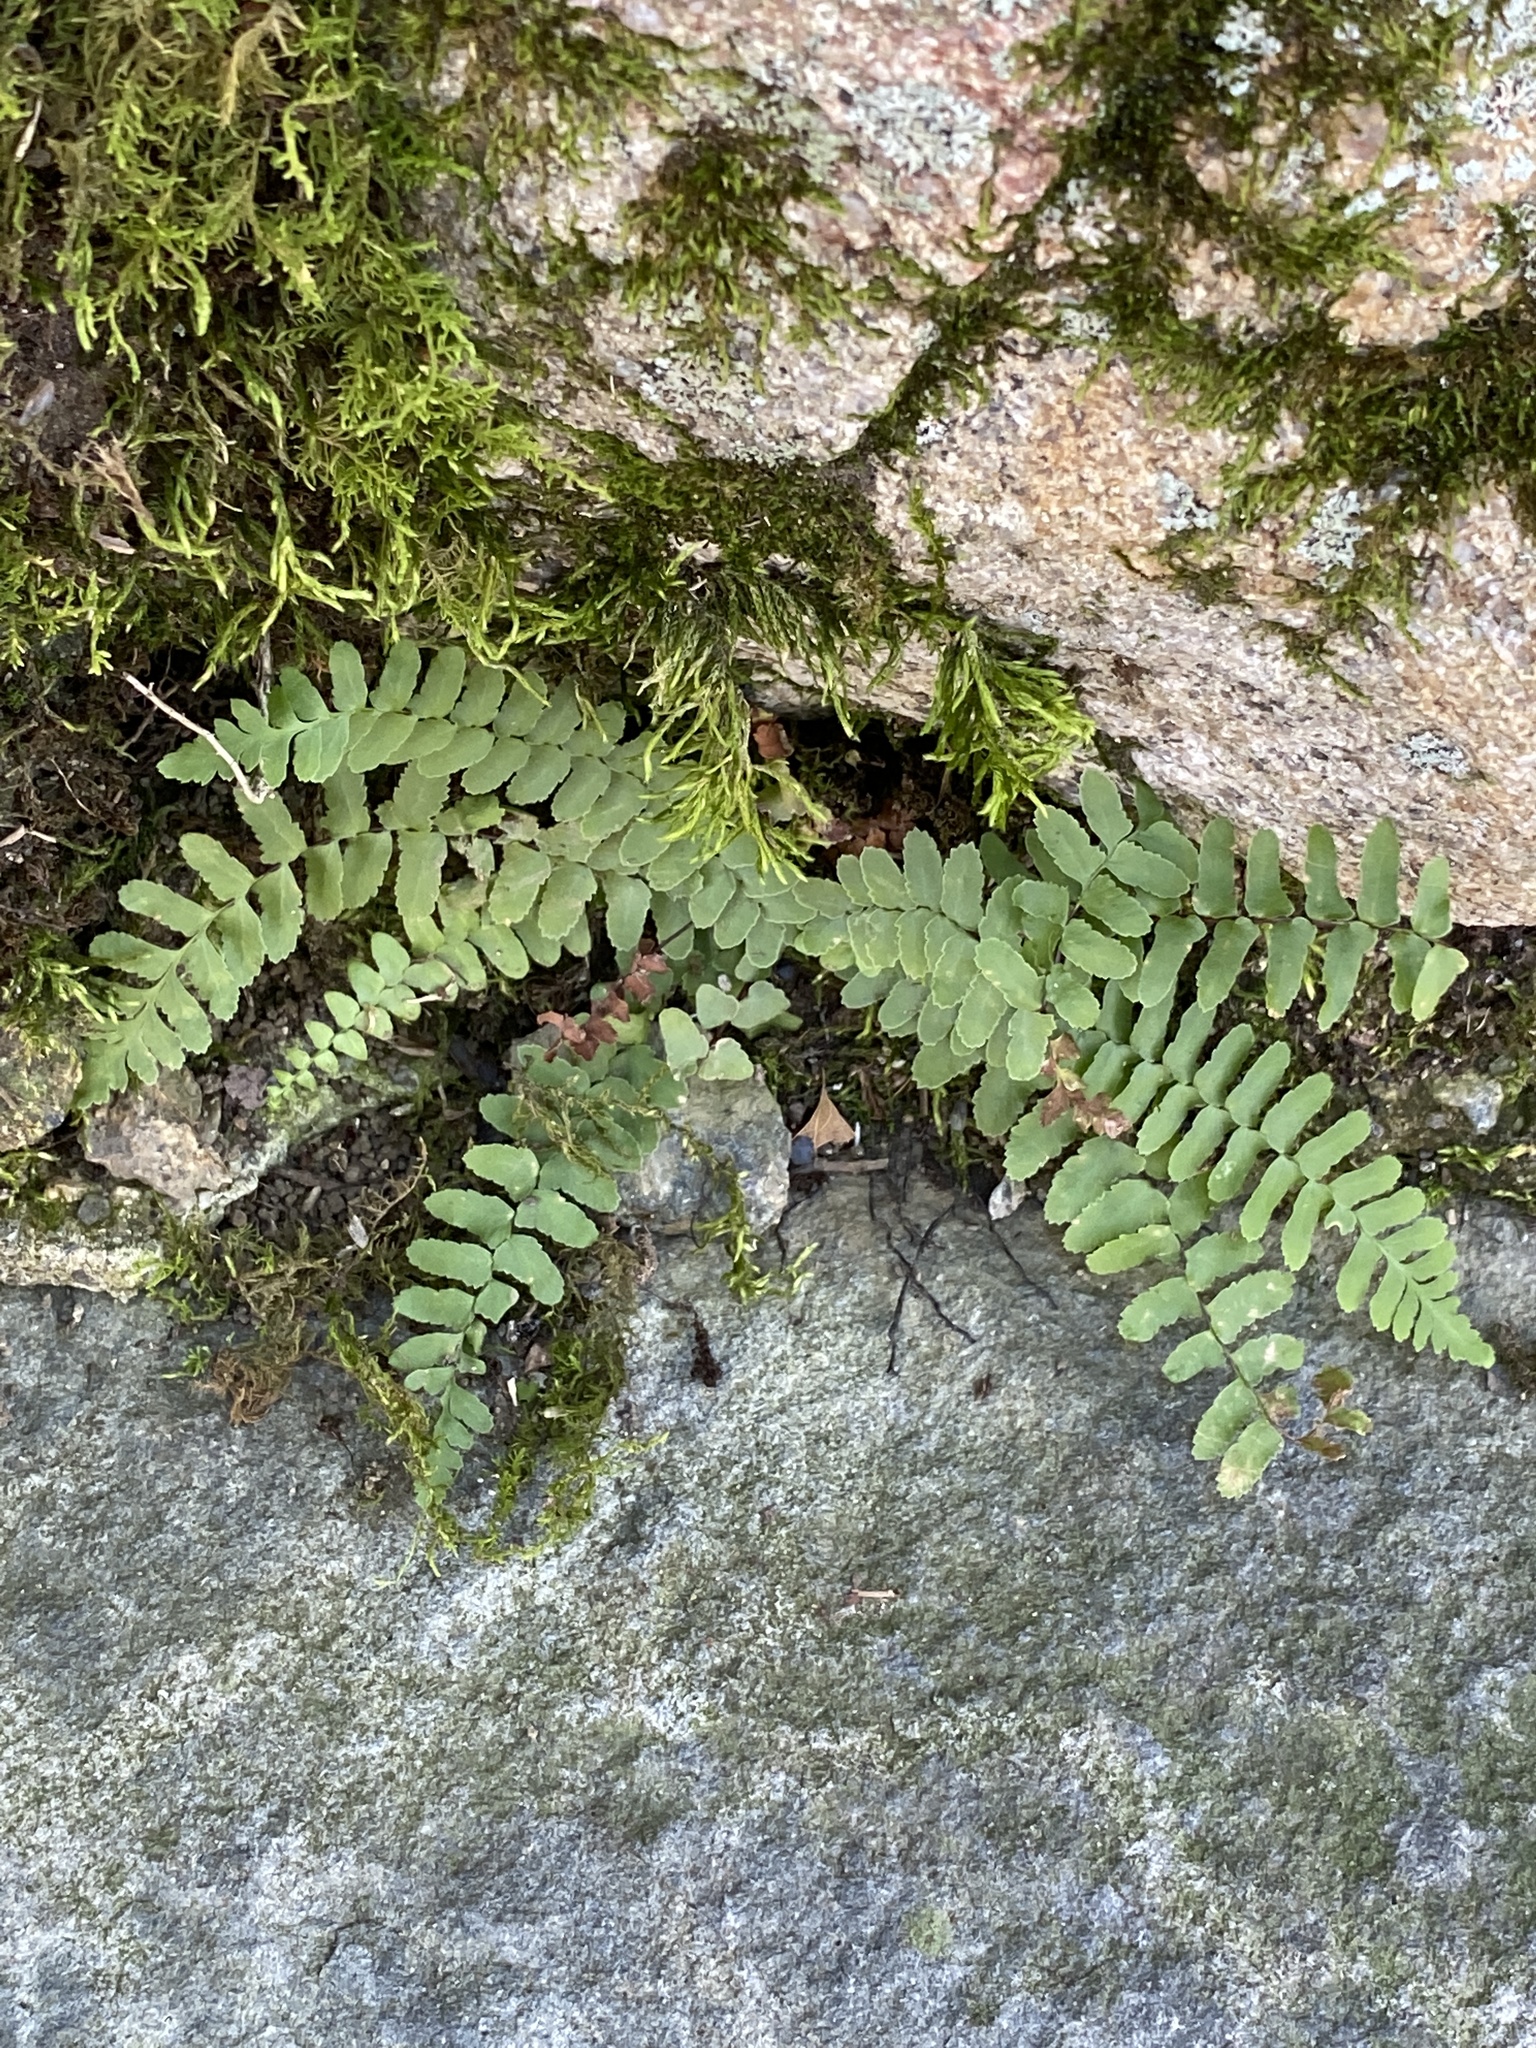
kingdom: Plantae
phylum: Tracheophyta
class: Polypodiopsida
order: Polypodiales
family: Aspleniaceae
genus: Asplenium
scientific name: Asplenium platyneuron
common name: Ebony spleenwort
